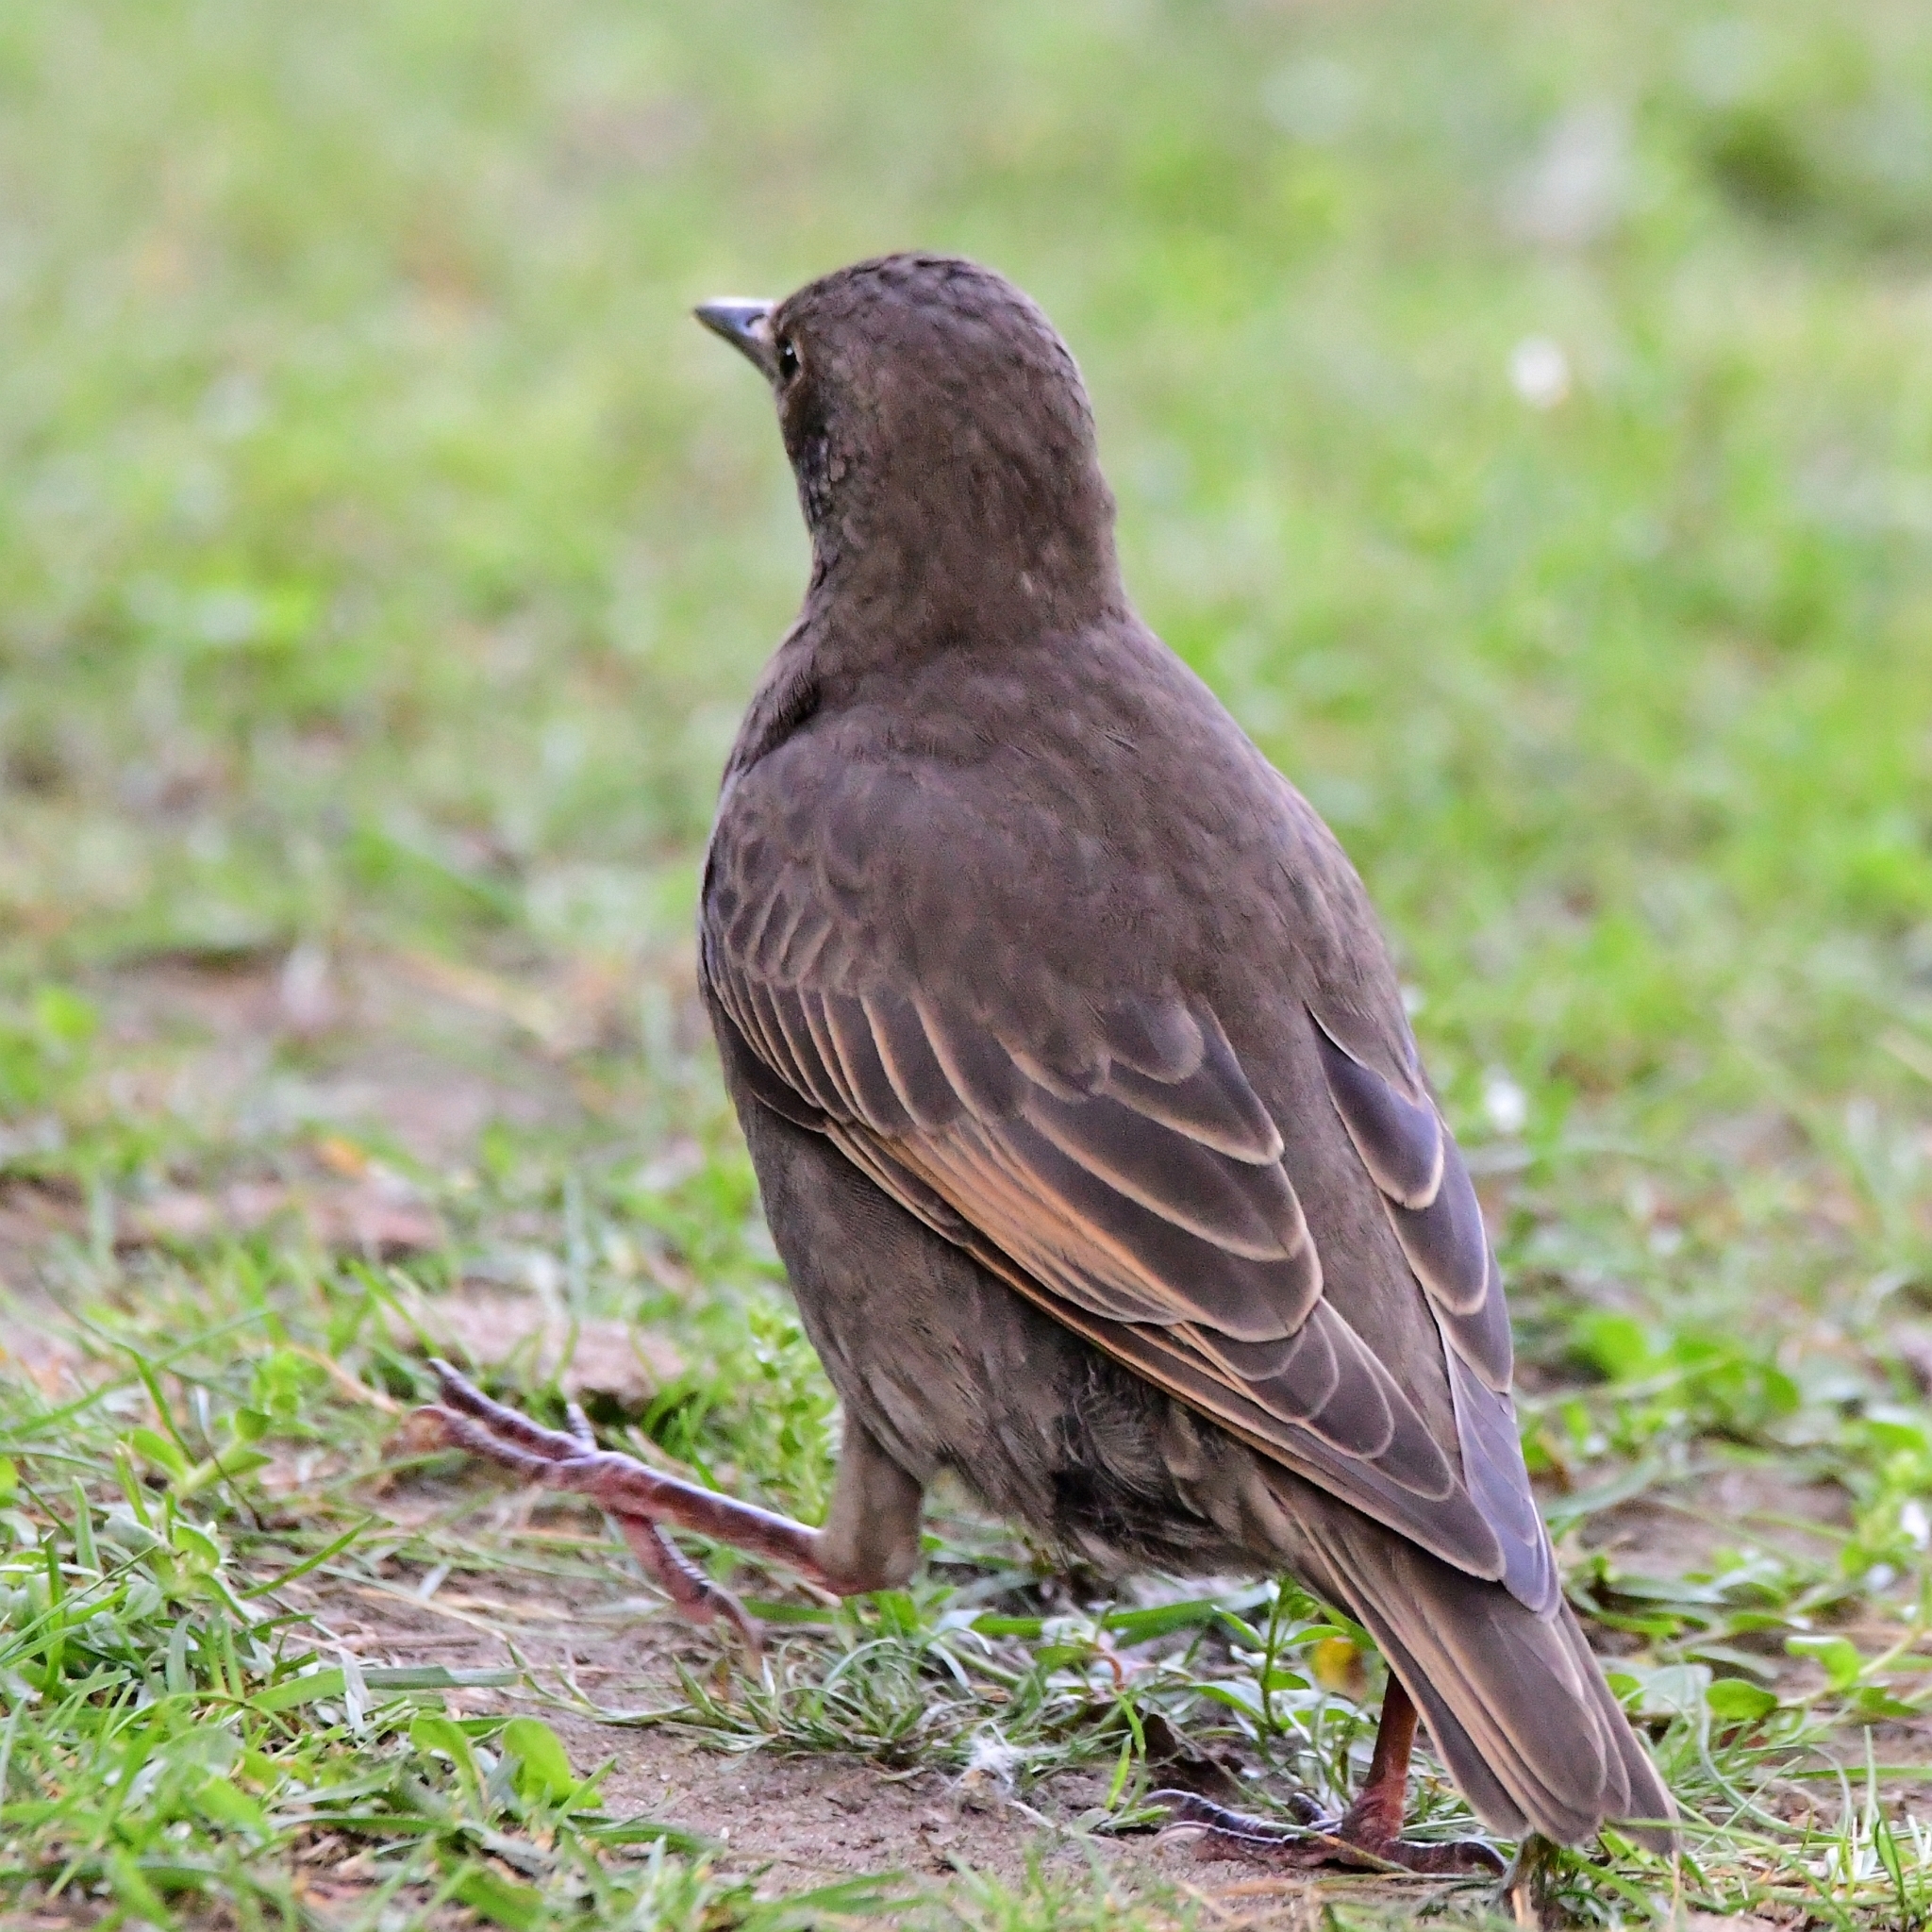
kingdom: Animalia
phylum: Chordata
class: Aves
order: Passeriformes
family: Sturnidae
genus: Sturnus
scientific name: Sturnus vulgaris
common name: Common starling
